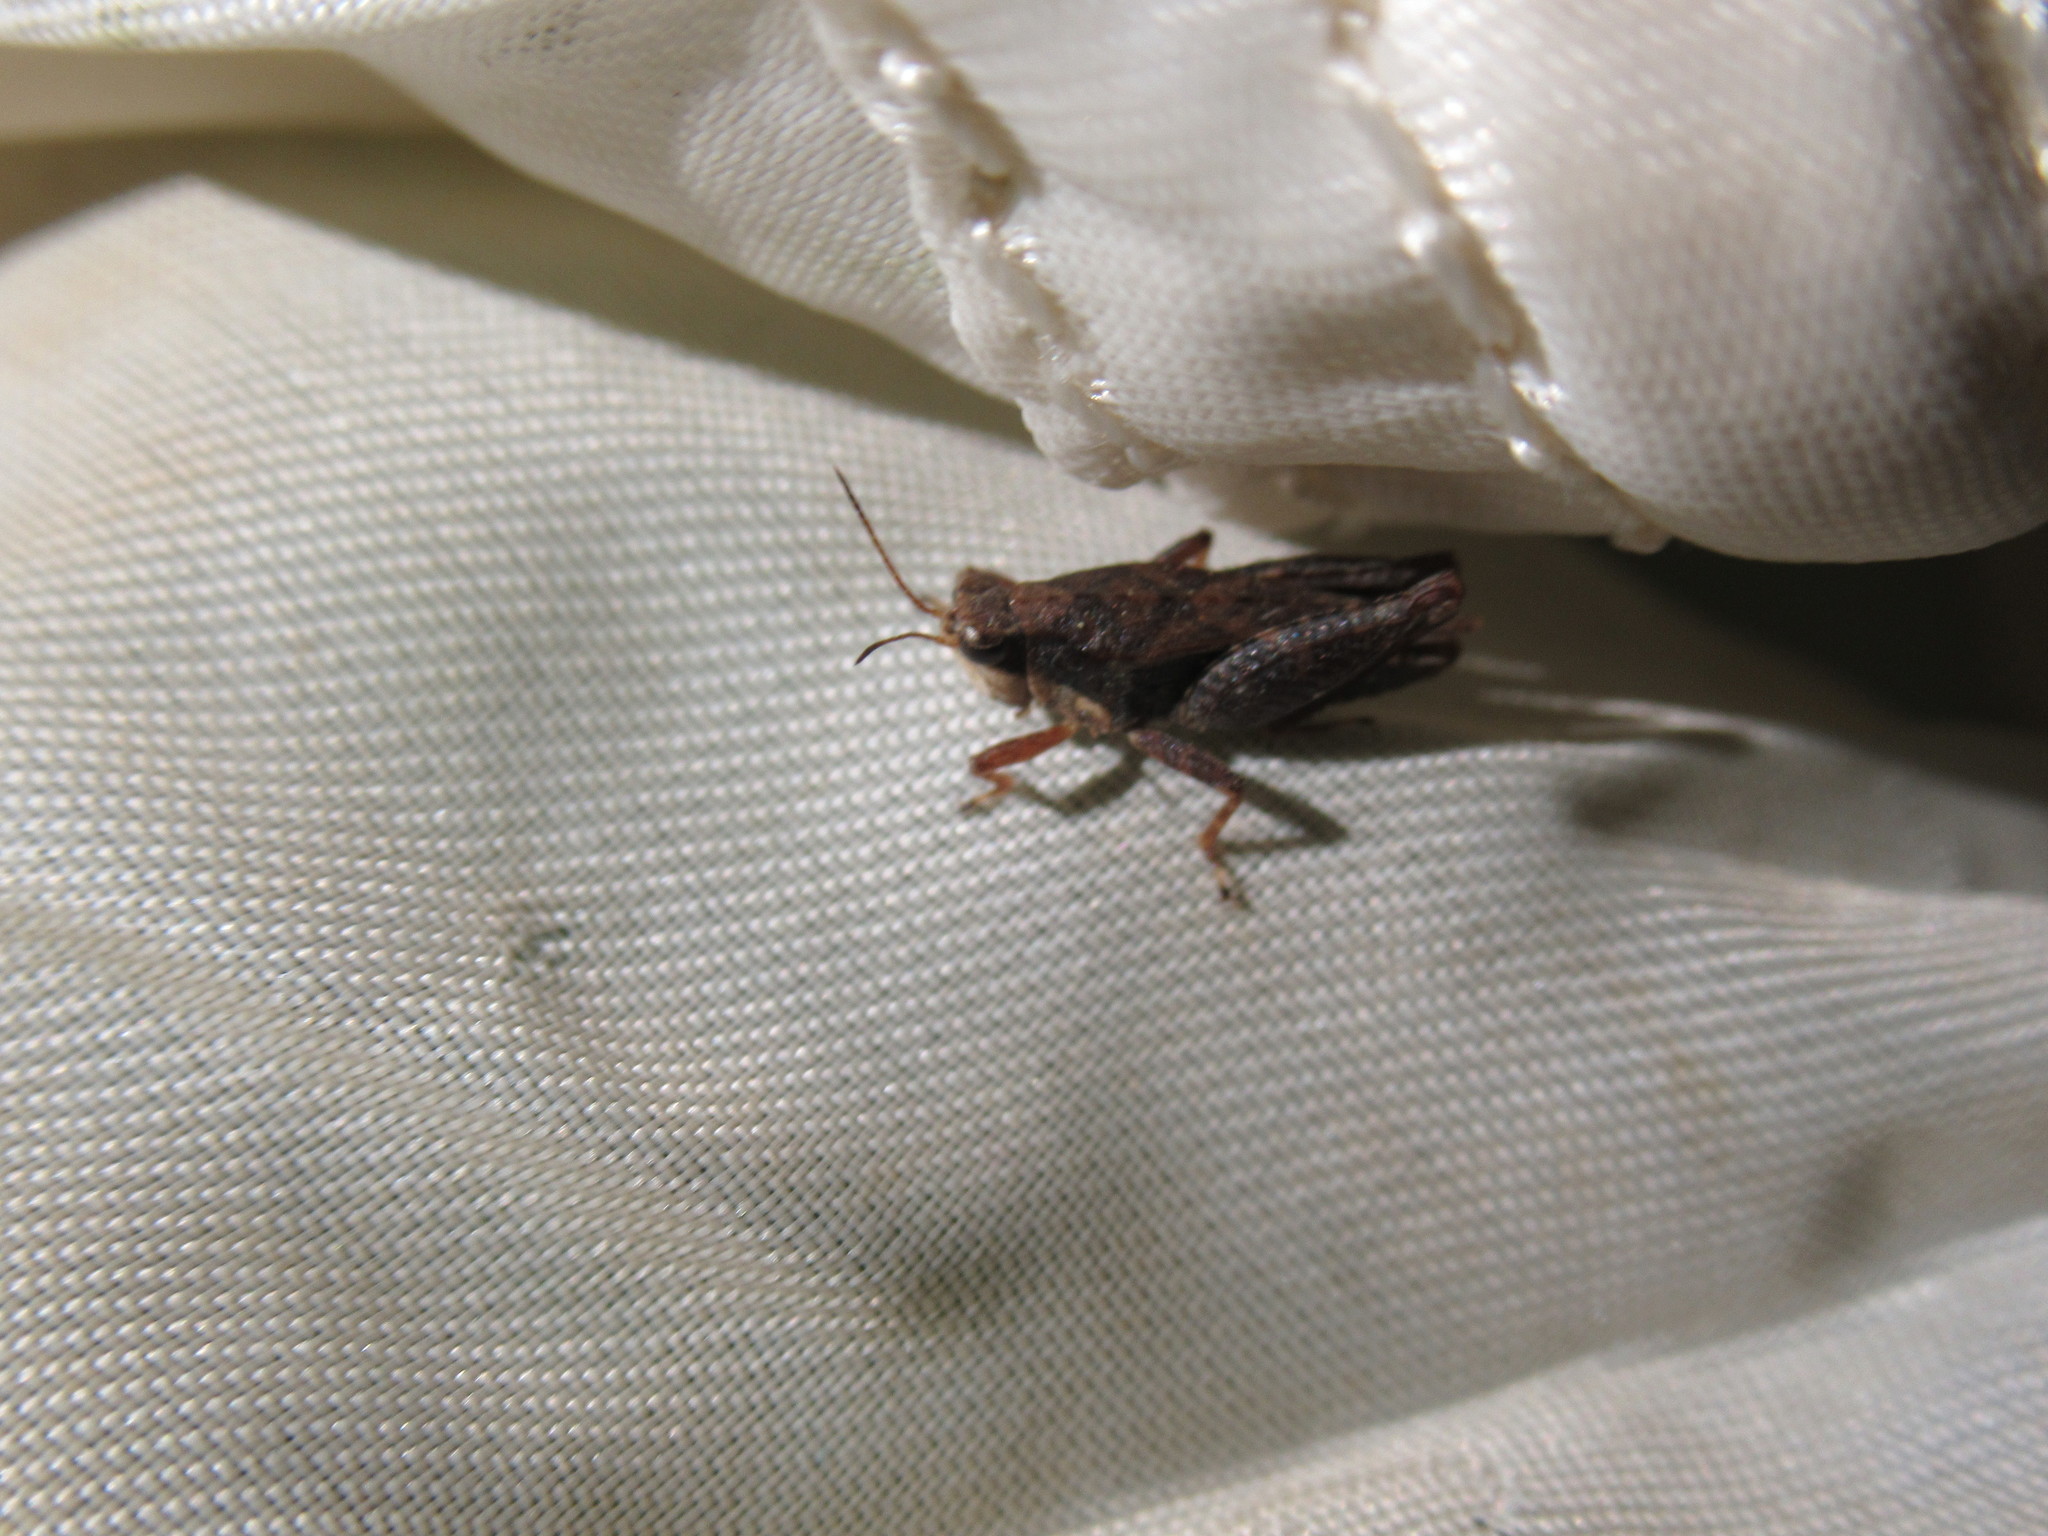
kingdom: Animalia
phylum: Arthropoda
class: Insecta
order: Orthoptera
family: Tetrigidae
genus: Tettigidea
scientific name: Tettigidea laterale
